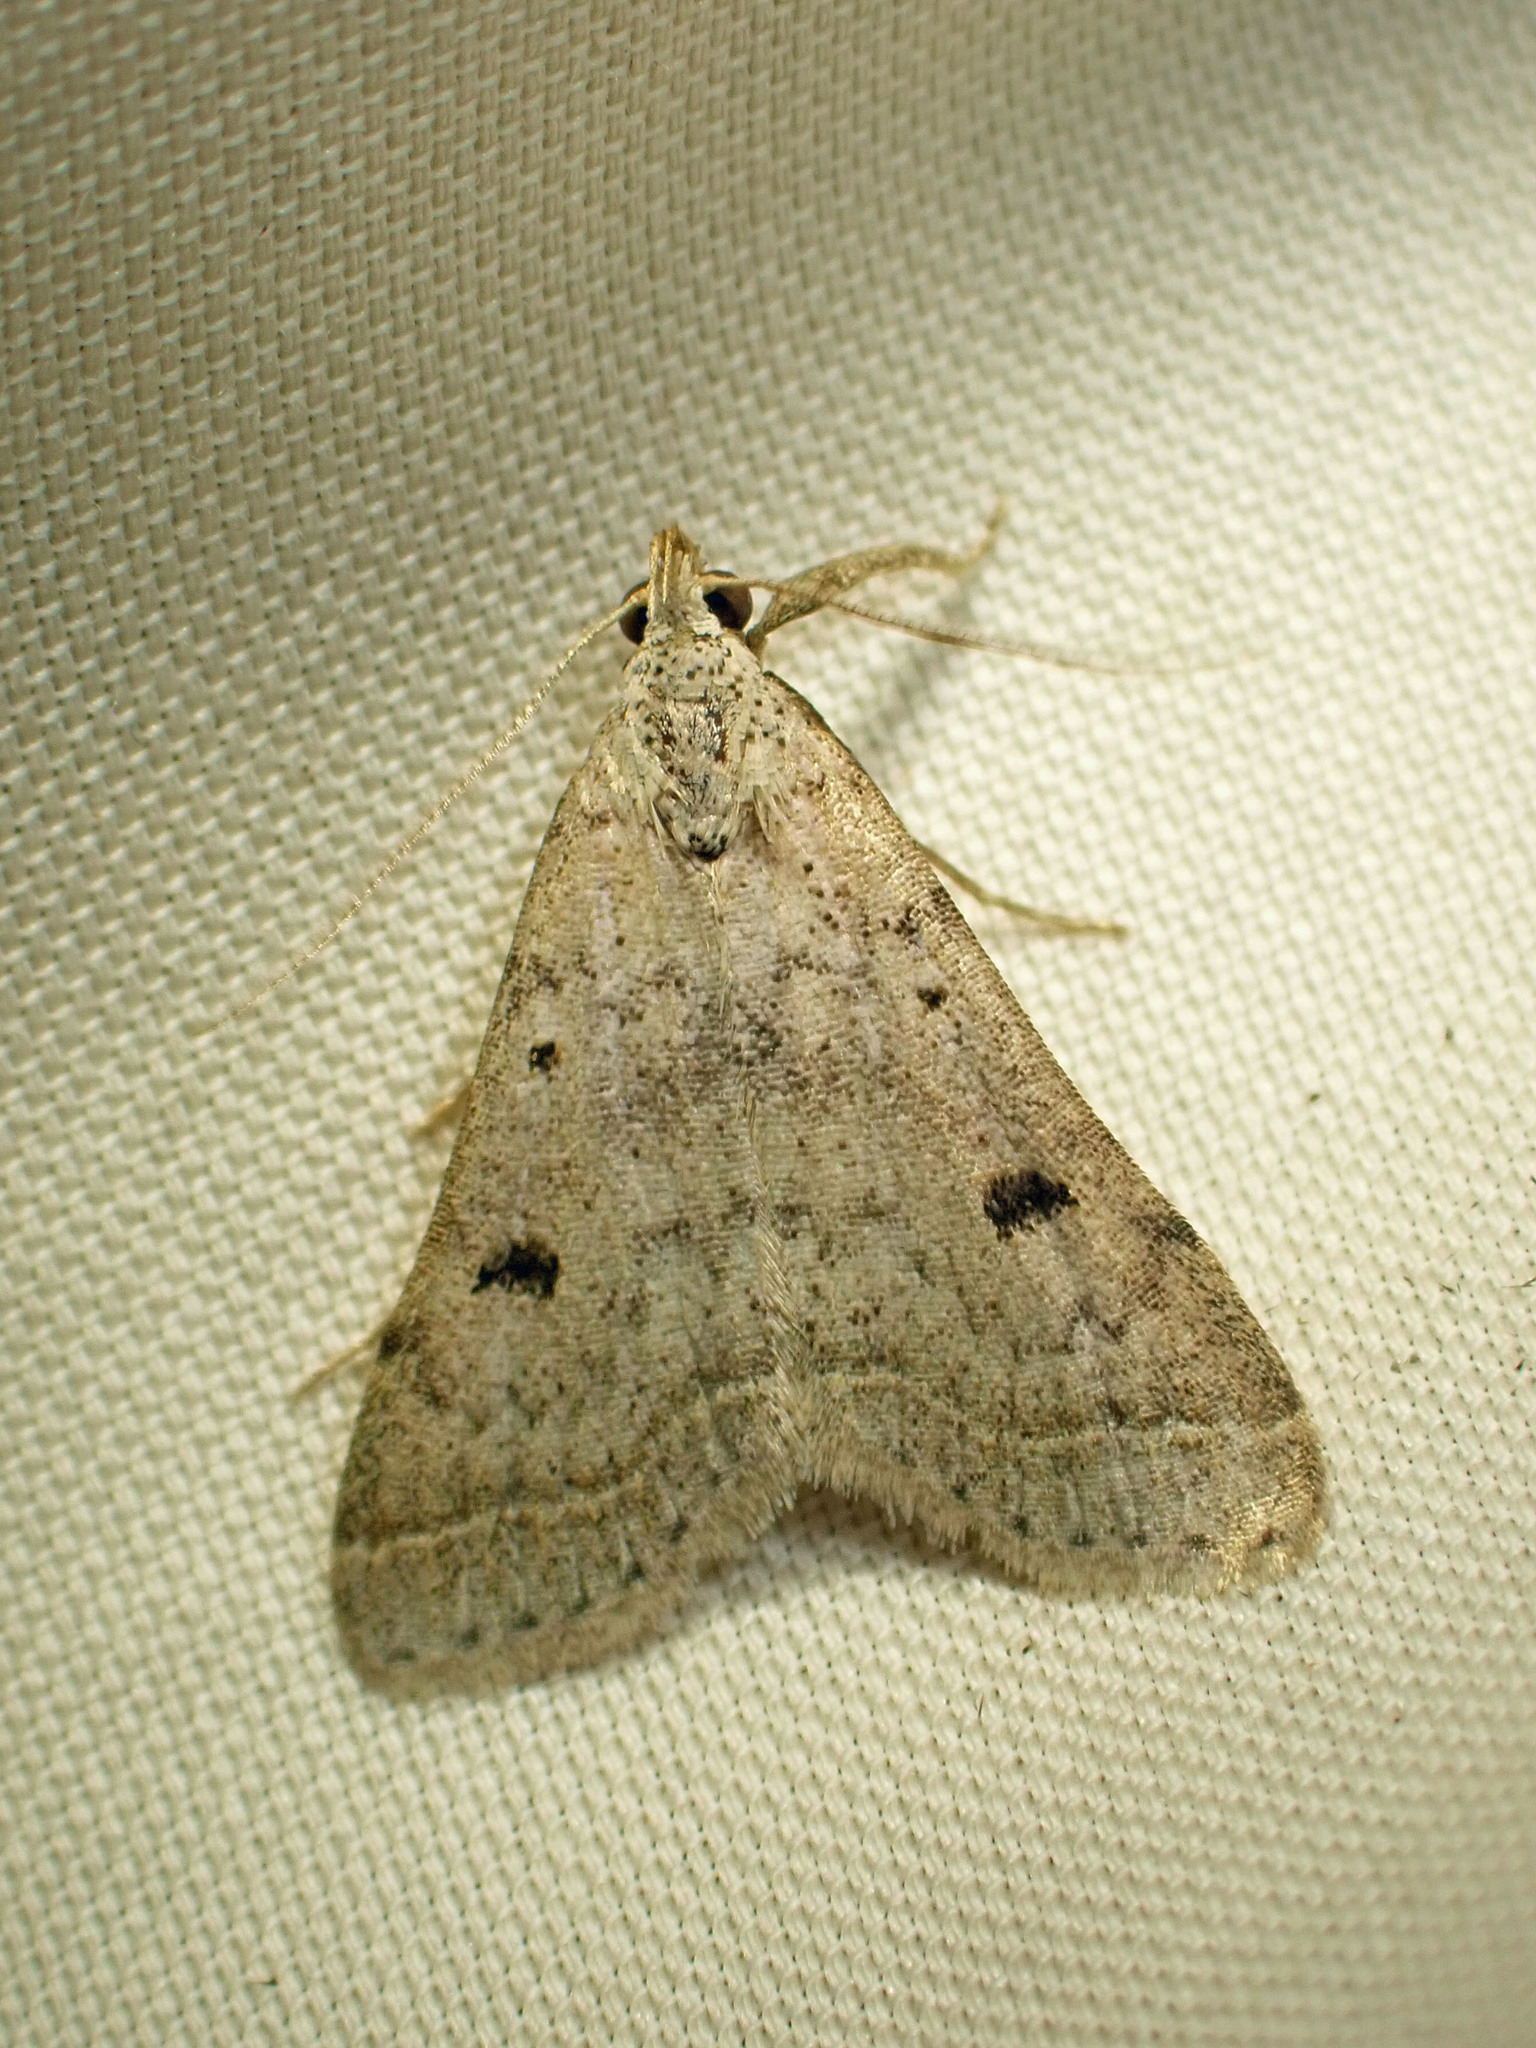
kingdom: Animalia
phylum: Arthropoda
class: Insecta
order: Lepidoptera
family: Erebidae
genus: Bleptina
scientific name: Bleptina caradrinalis
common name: Bent-winged owlet
